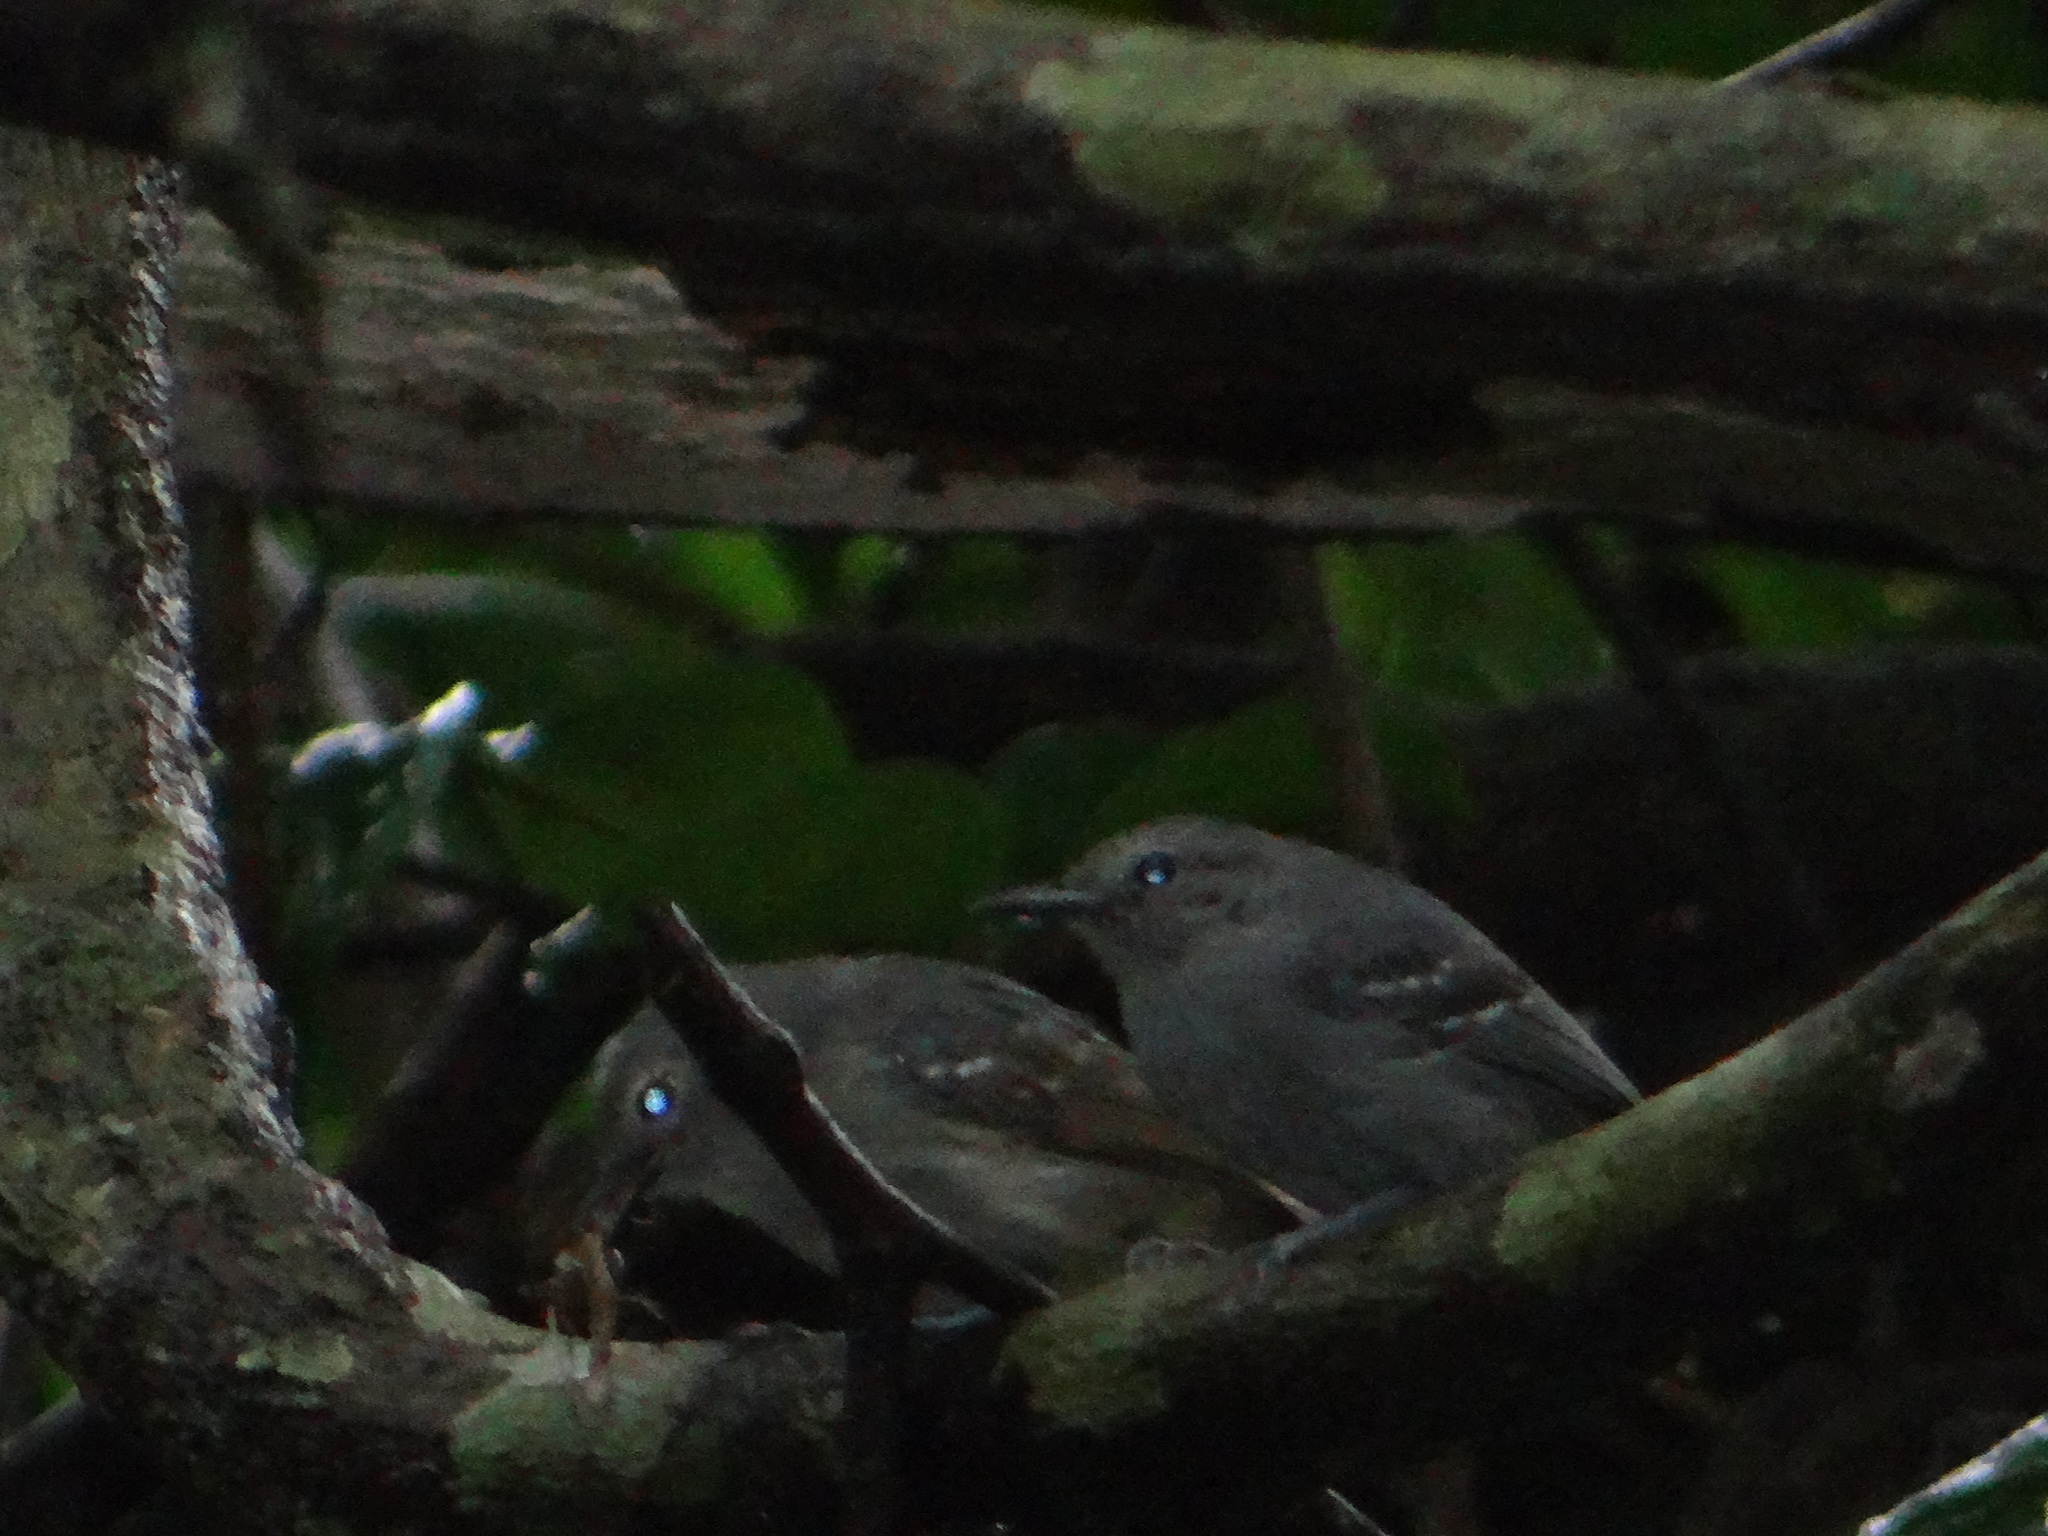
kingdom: Animalia
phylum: Chordata
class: Aves
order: Passeriformes
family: Thamnophilidae
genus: Thamnophilus
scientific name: Thamnophilus murinus
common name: Mouse-colored antshrike
